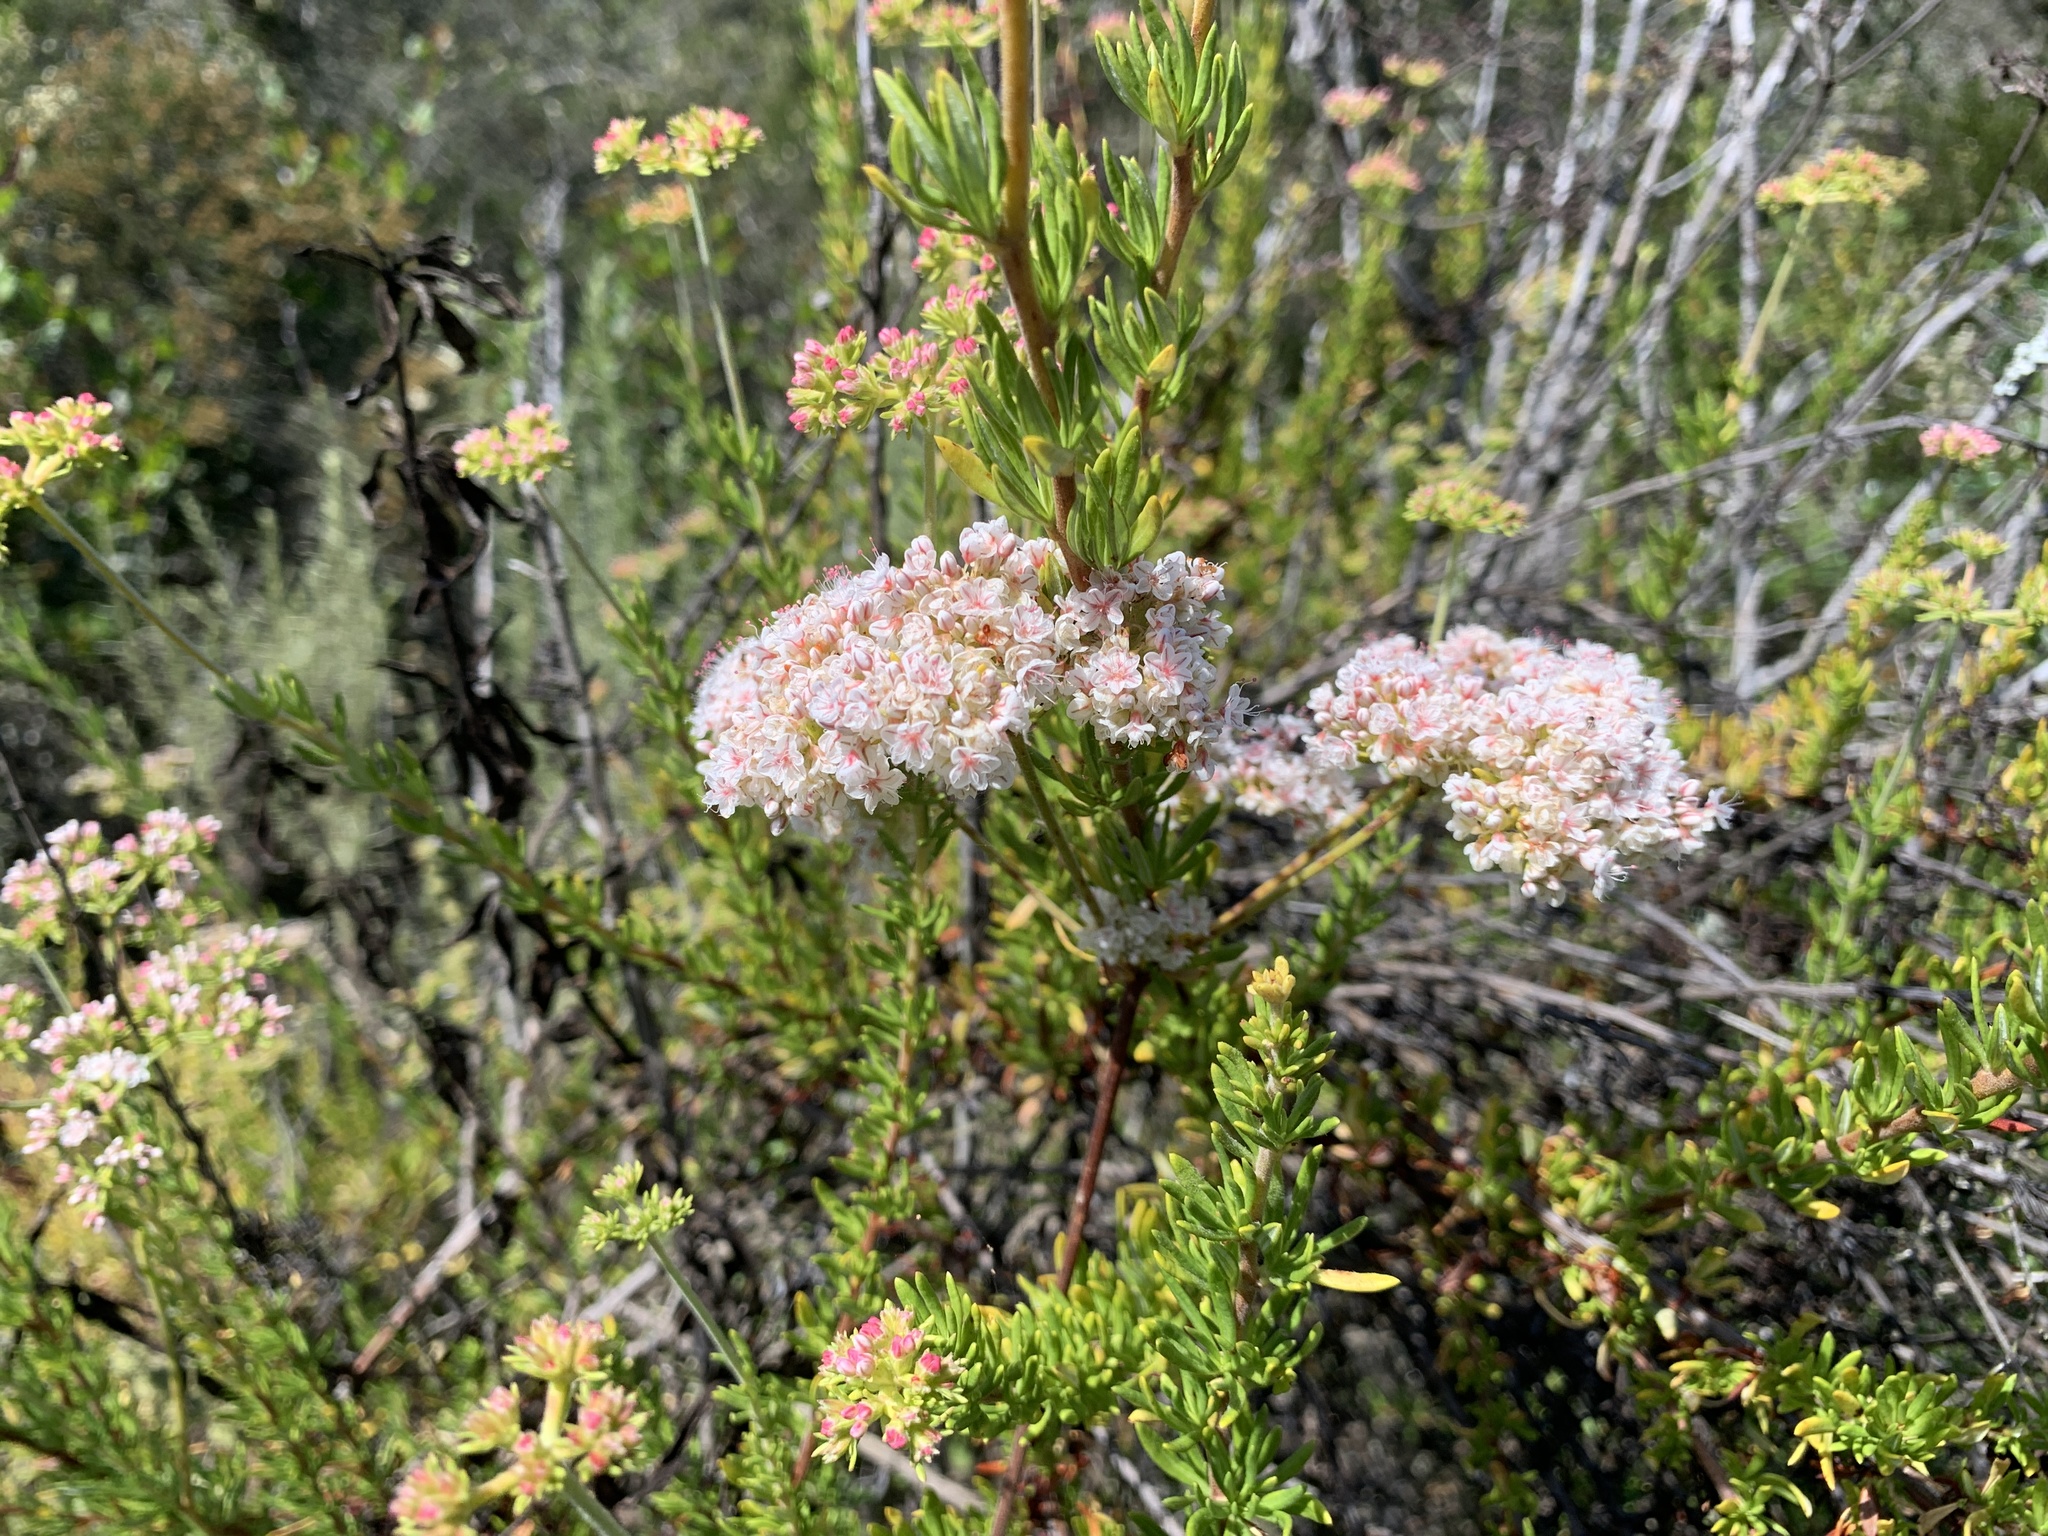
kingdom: Plantae
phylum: Tracheophyta
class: Magnoliopsida
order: Caryophyllales
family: Polygonaceae
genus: Eriogonum
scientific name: Eriogonum fasciculatum
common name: California wild buckwheat
